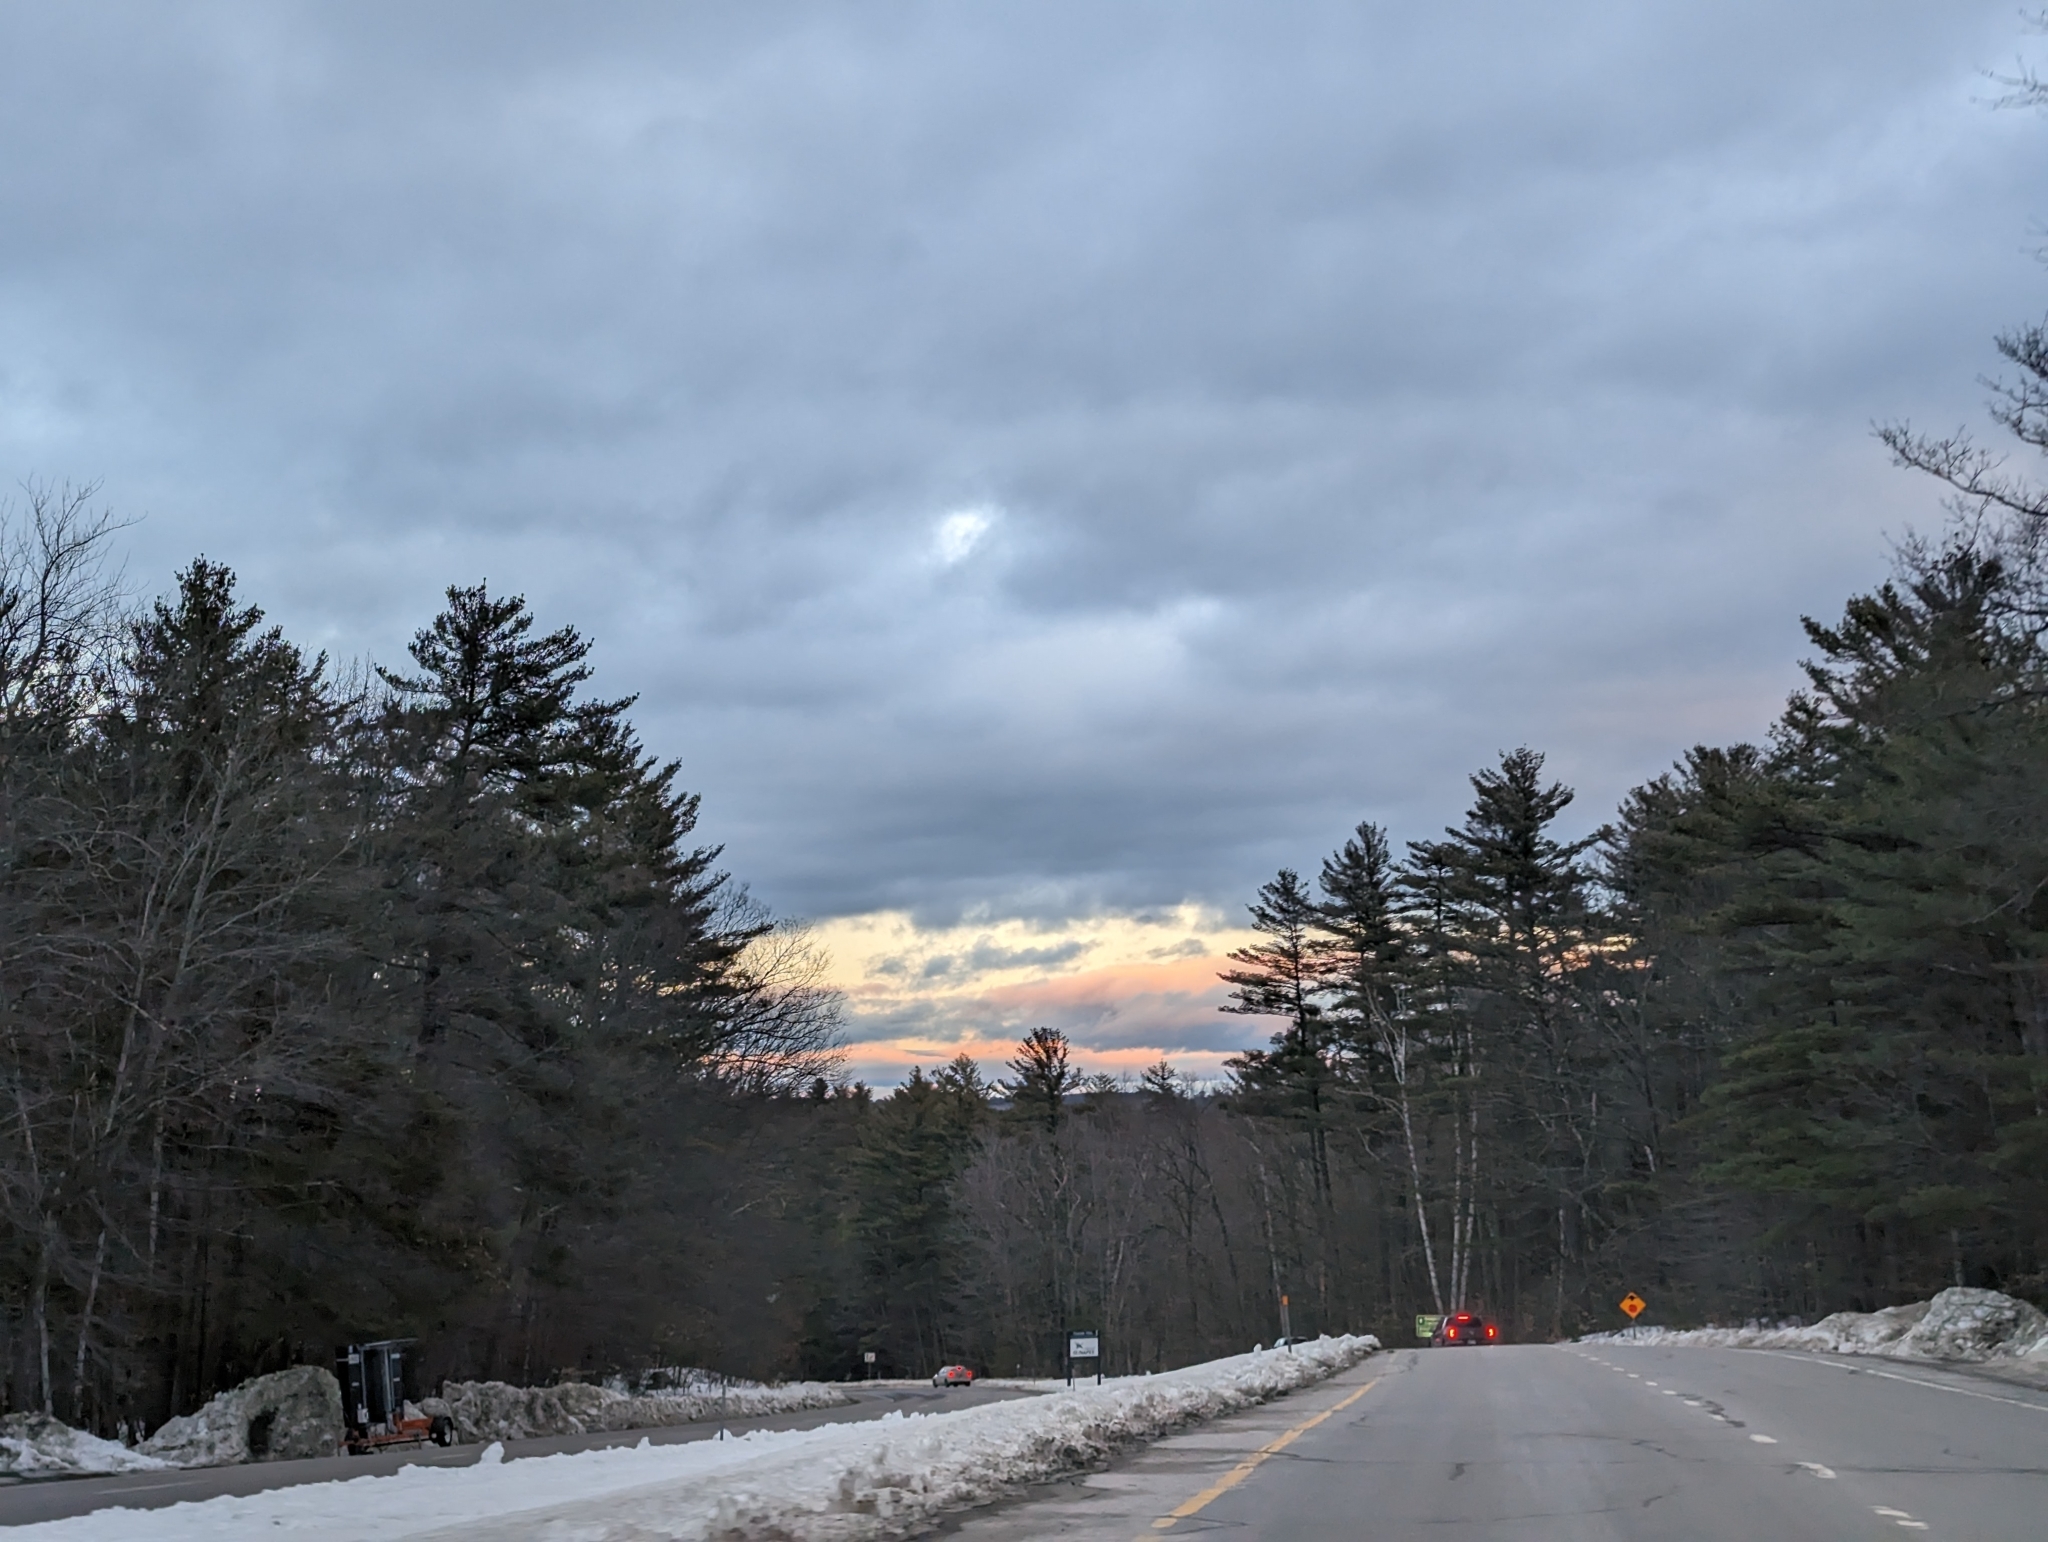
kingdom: Plantae
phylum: Tracheophyta
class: Pinopsida
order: Pinales
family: Pinaceae
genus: Pinus
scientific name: Pinus strobus
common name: Weymouth pine
